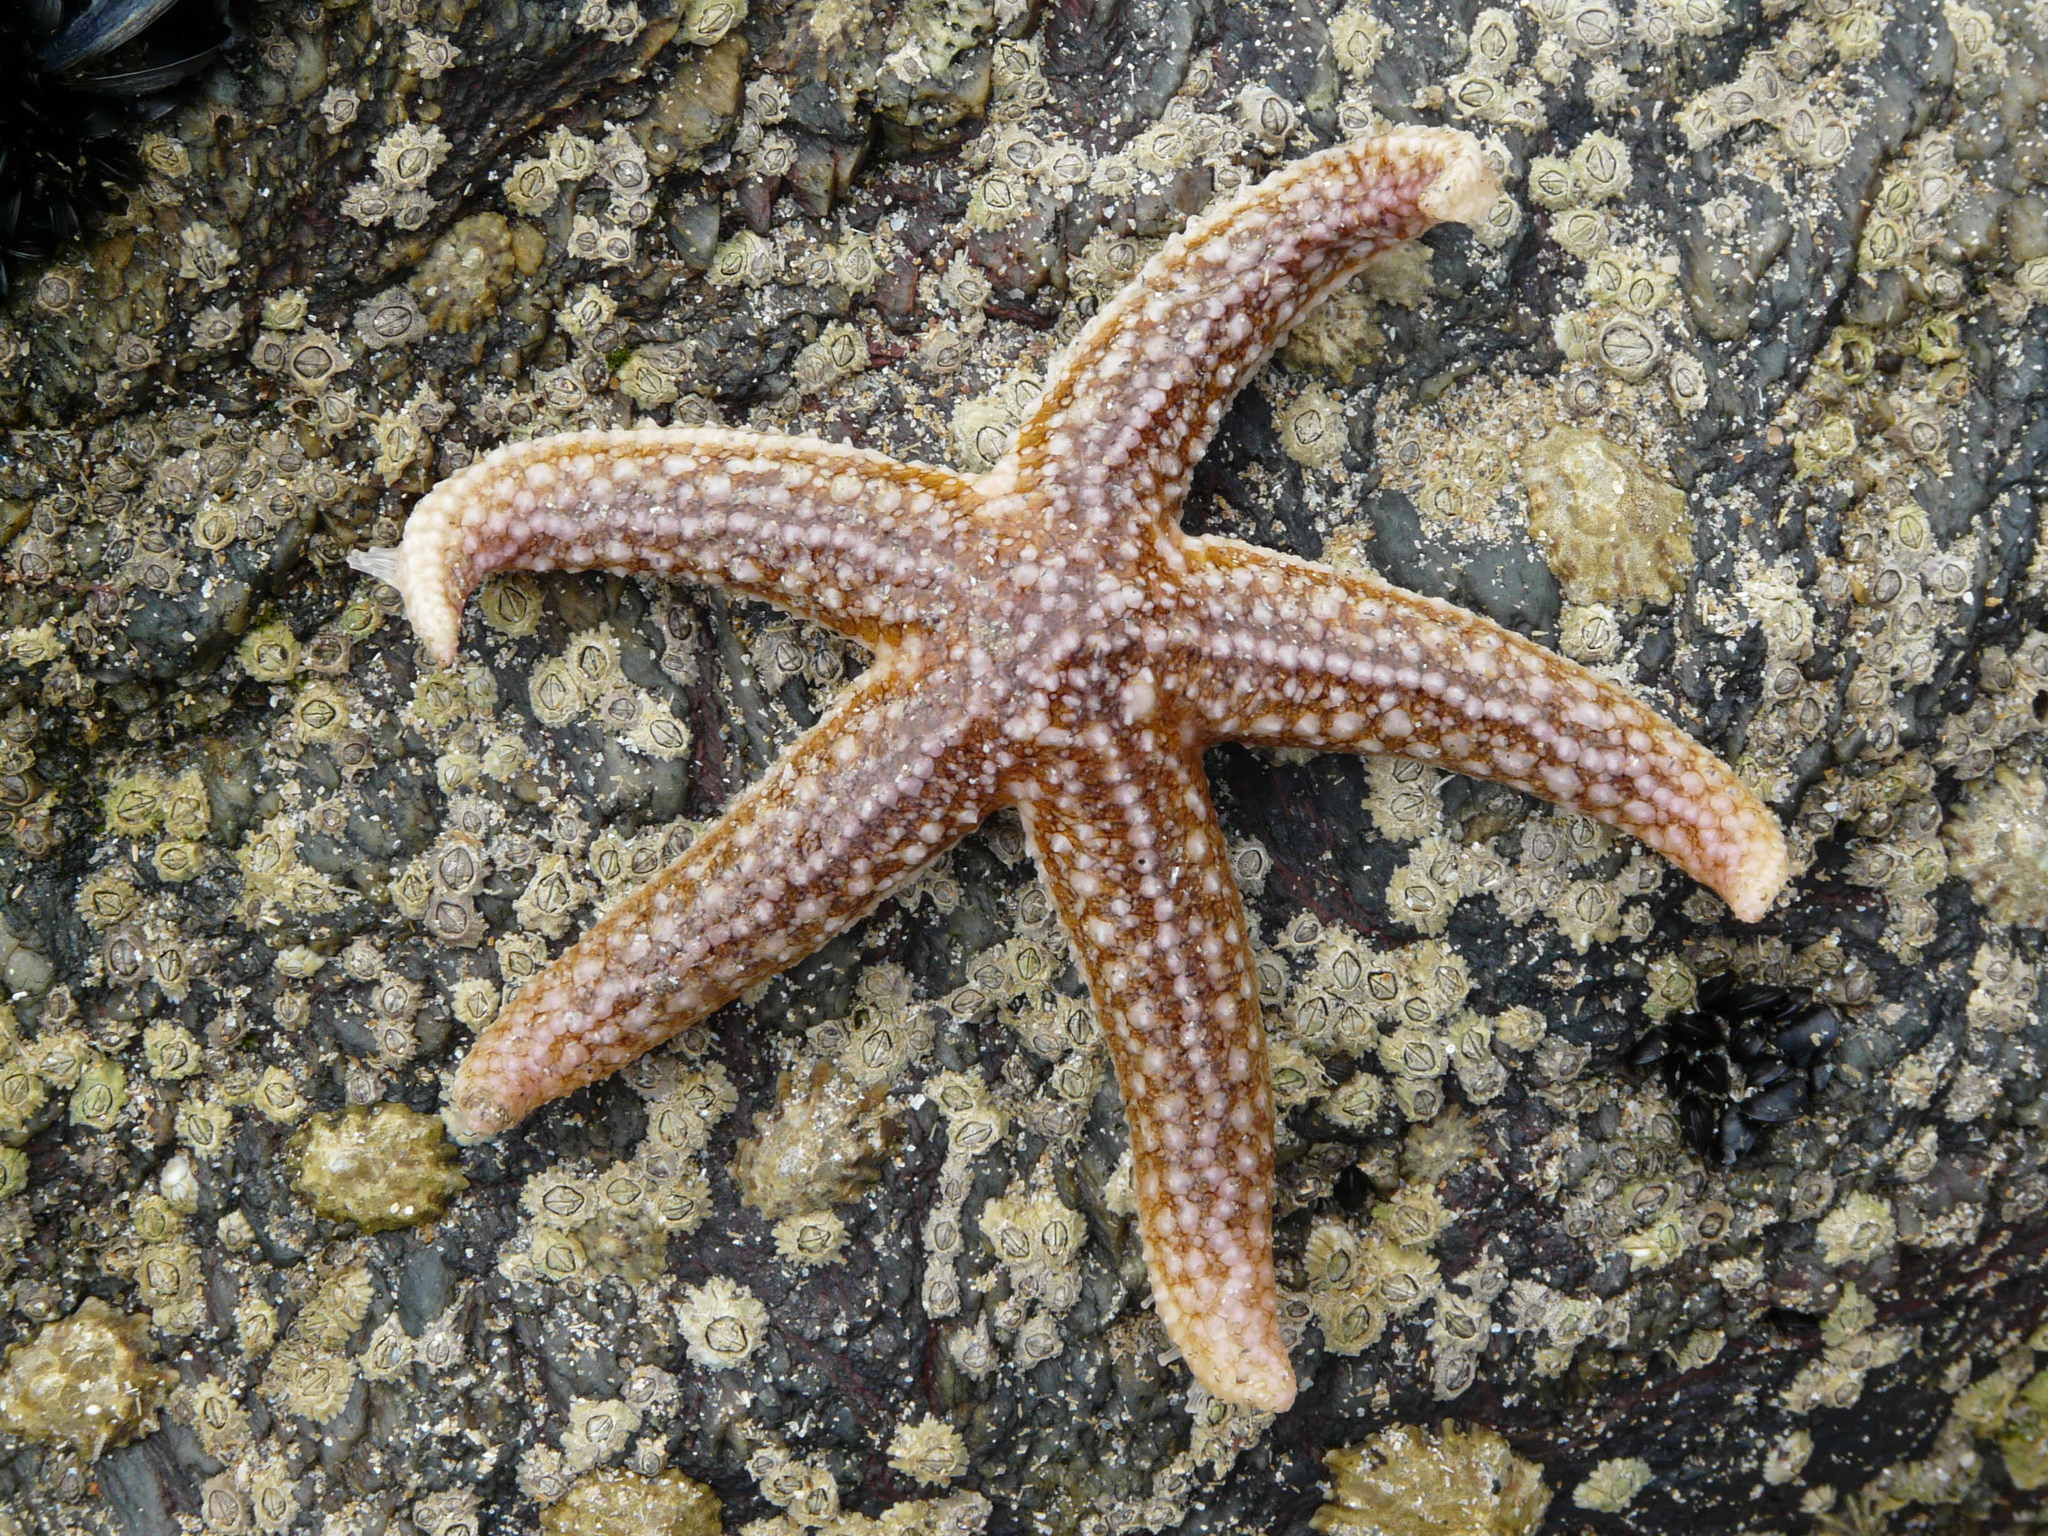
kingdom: Animalia
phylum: Echinodermata
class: Asteroidea
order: Forcipulatida
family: Asteriidae
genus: Asterias
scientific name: Asterias rubens
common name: Common starfish
